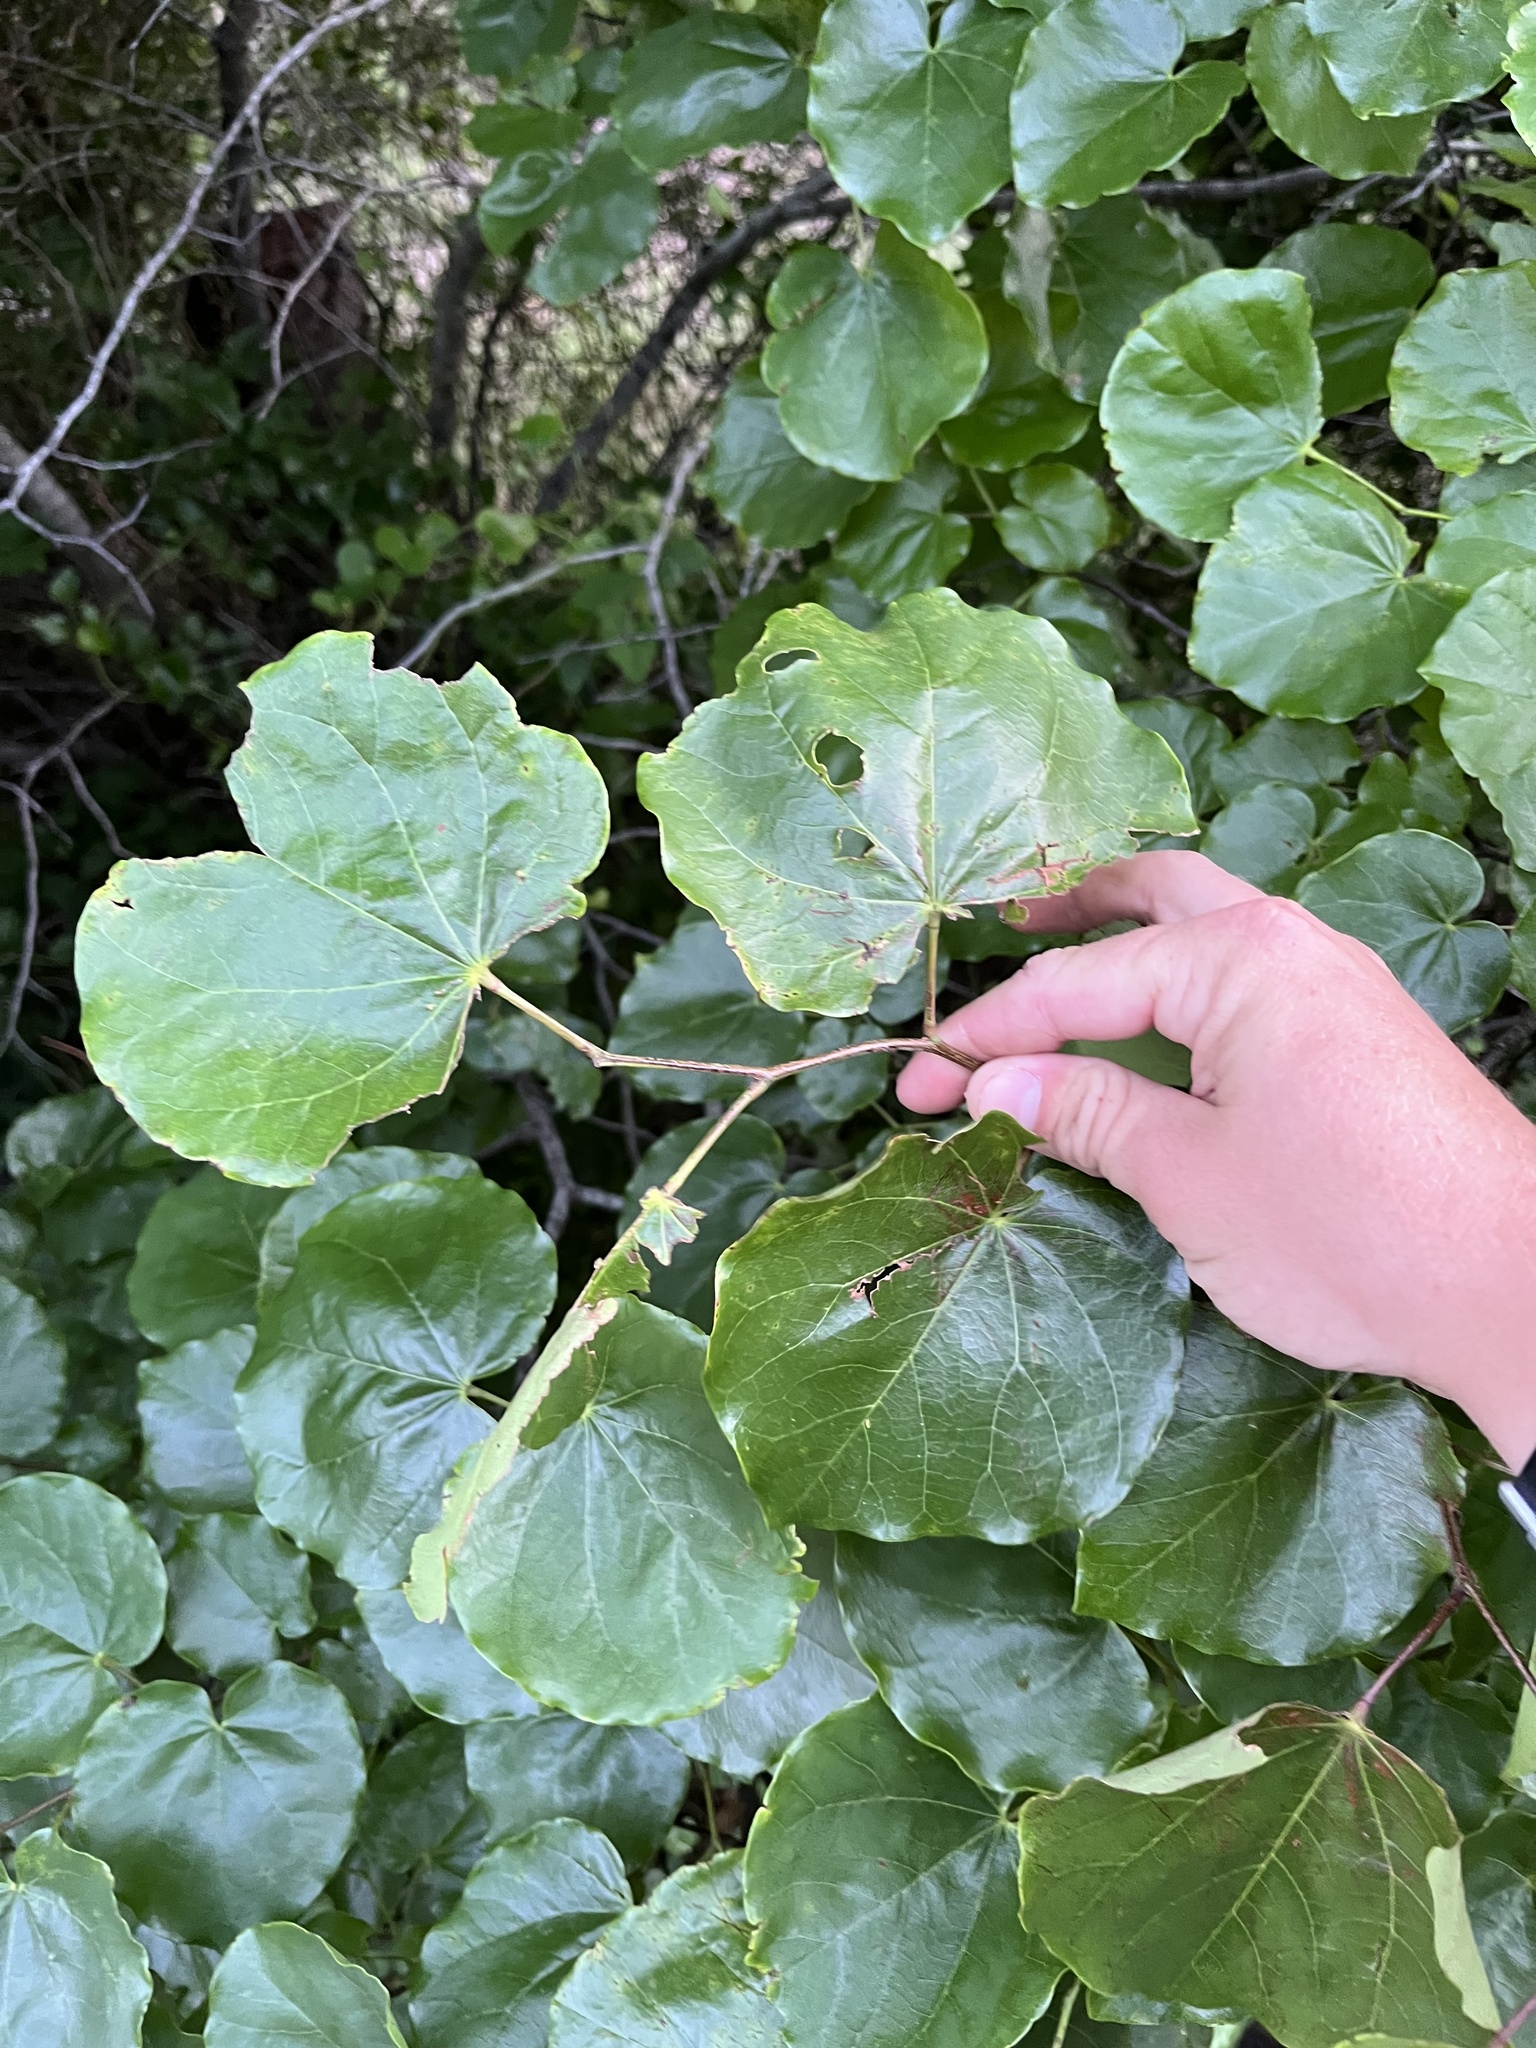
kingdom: Plantae
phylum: Tracheophyta
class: Magnoliopsida
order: Fabales
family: Fabaceae
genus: Cercis
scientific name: Cercis canadensis
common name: Eastern redbud
